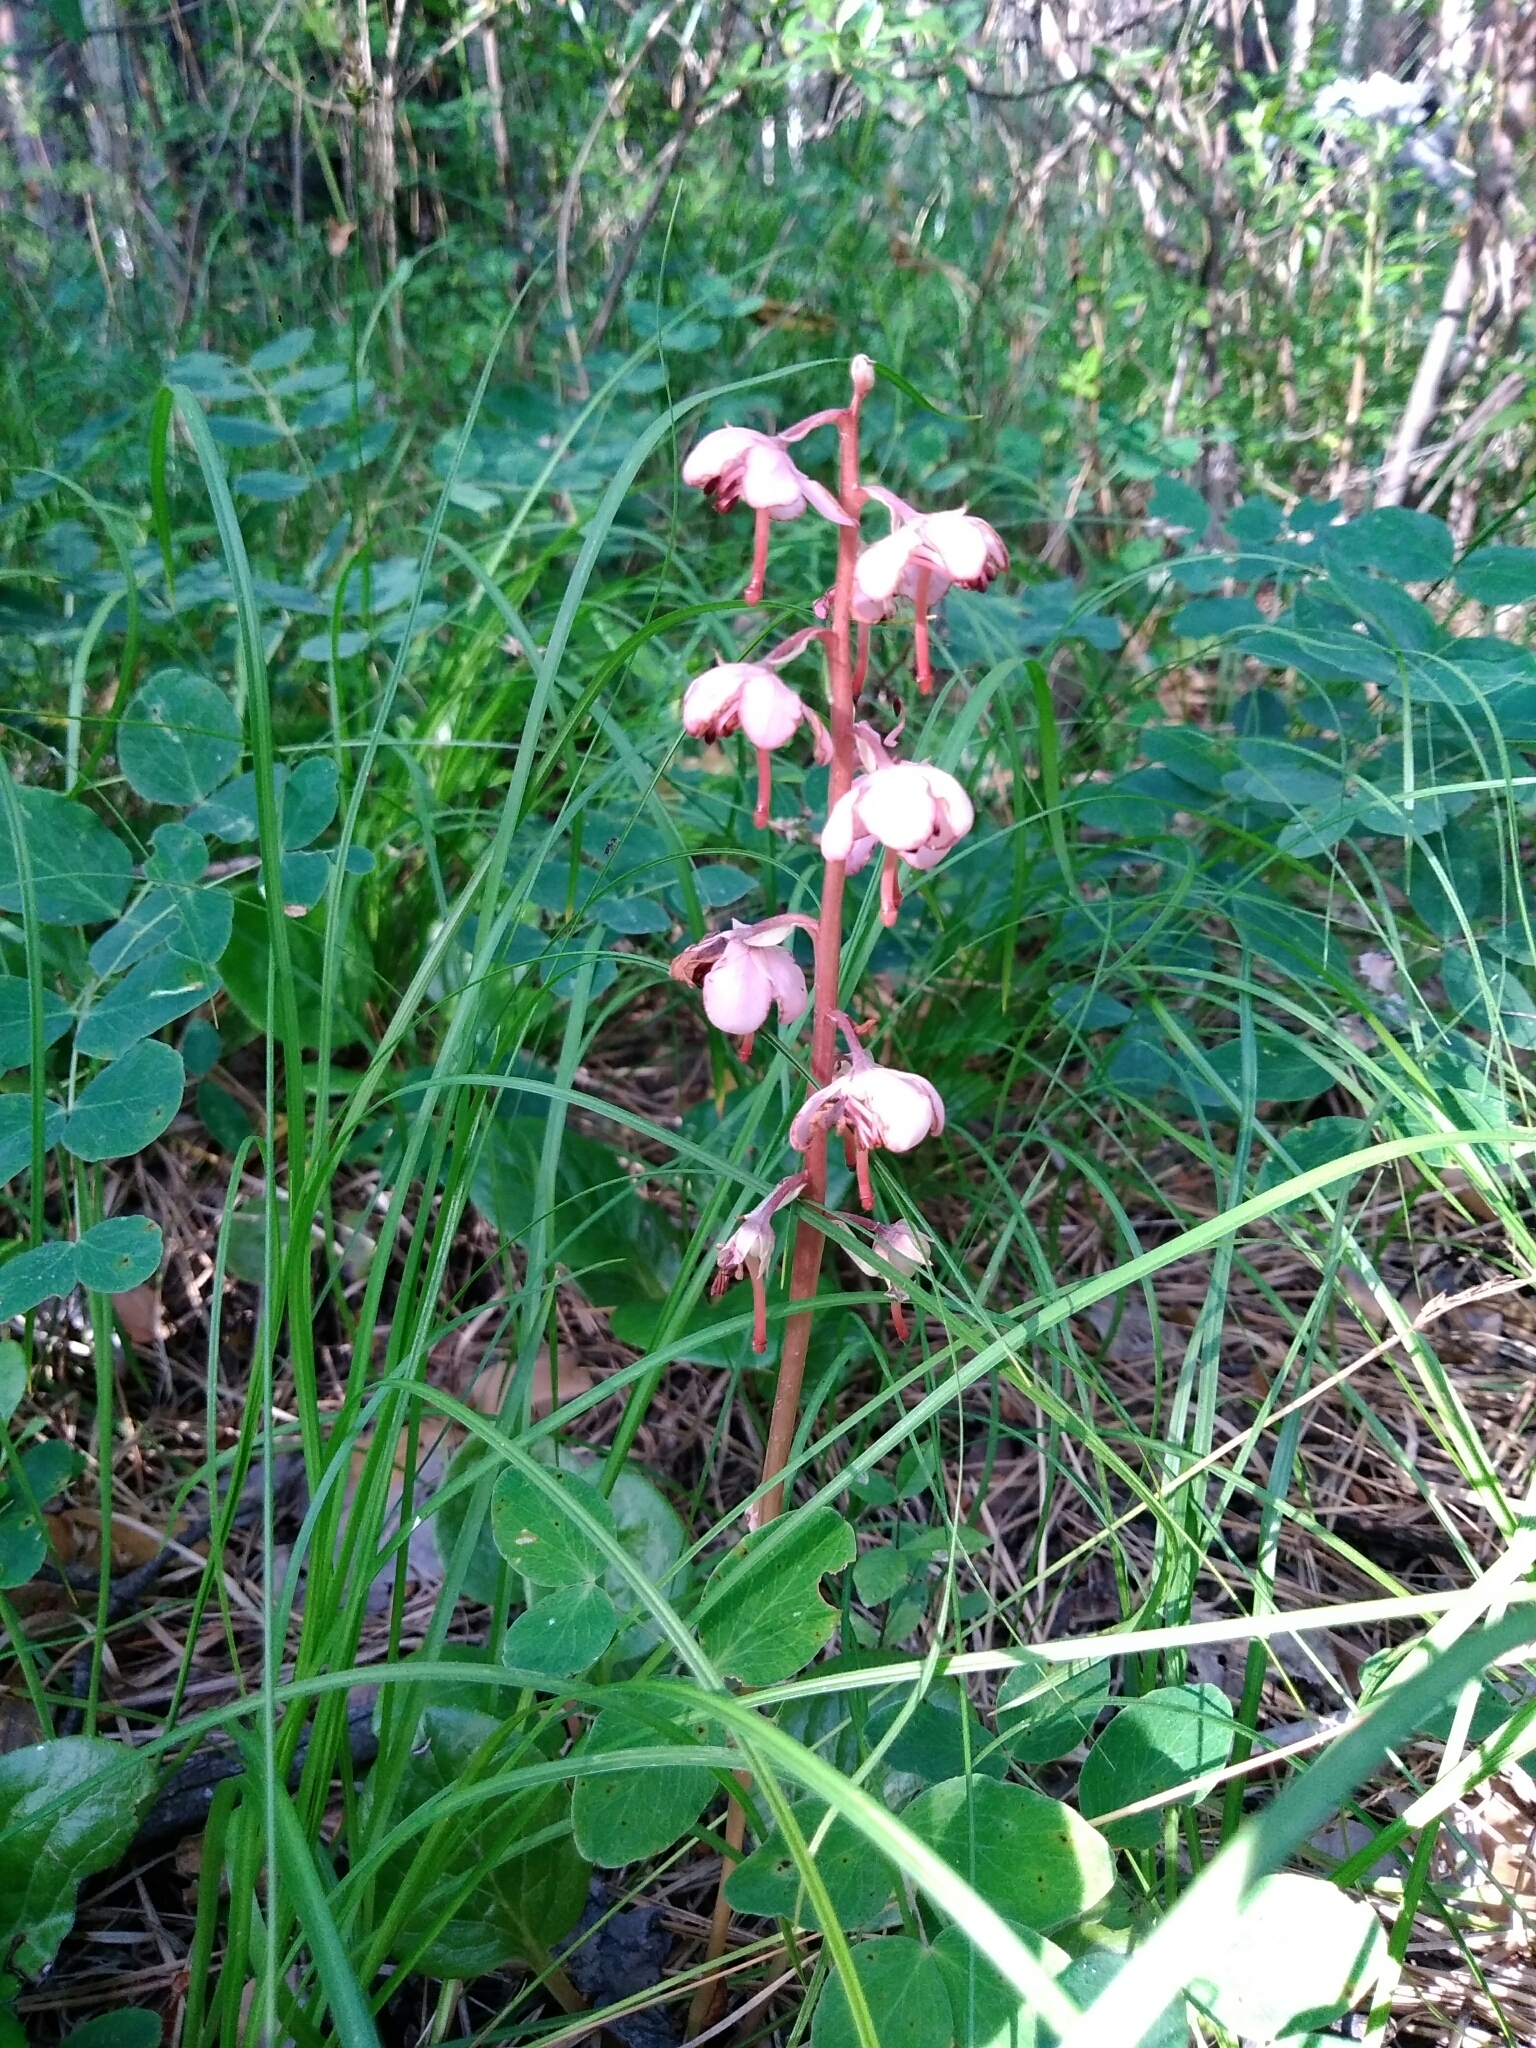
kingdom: Plantae
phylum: Tracheophyta
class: Magnoliopsida
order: Ericales
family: Ericaceae
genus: Pyrola
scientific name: Pyrola asarifolia
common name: Bog wintergreen
